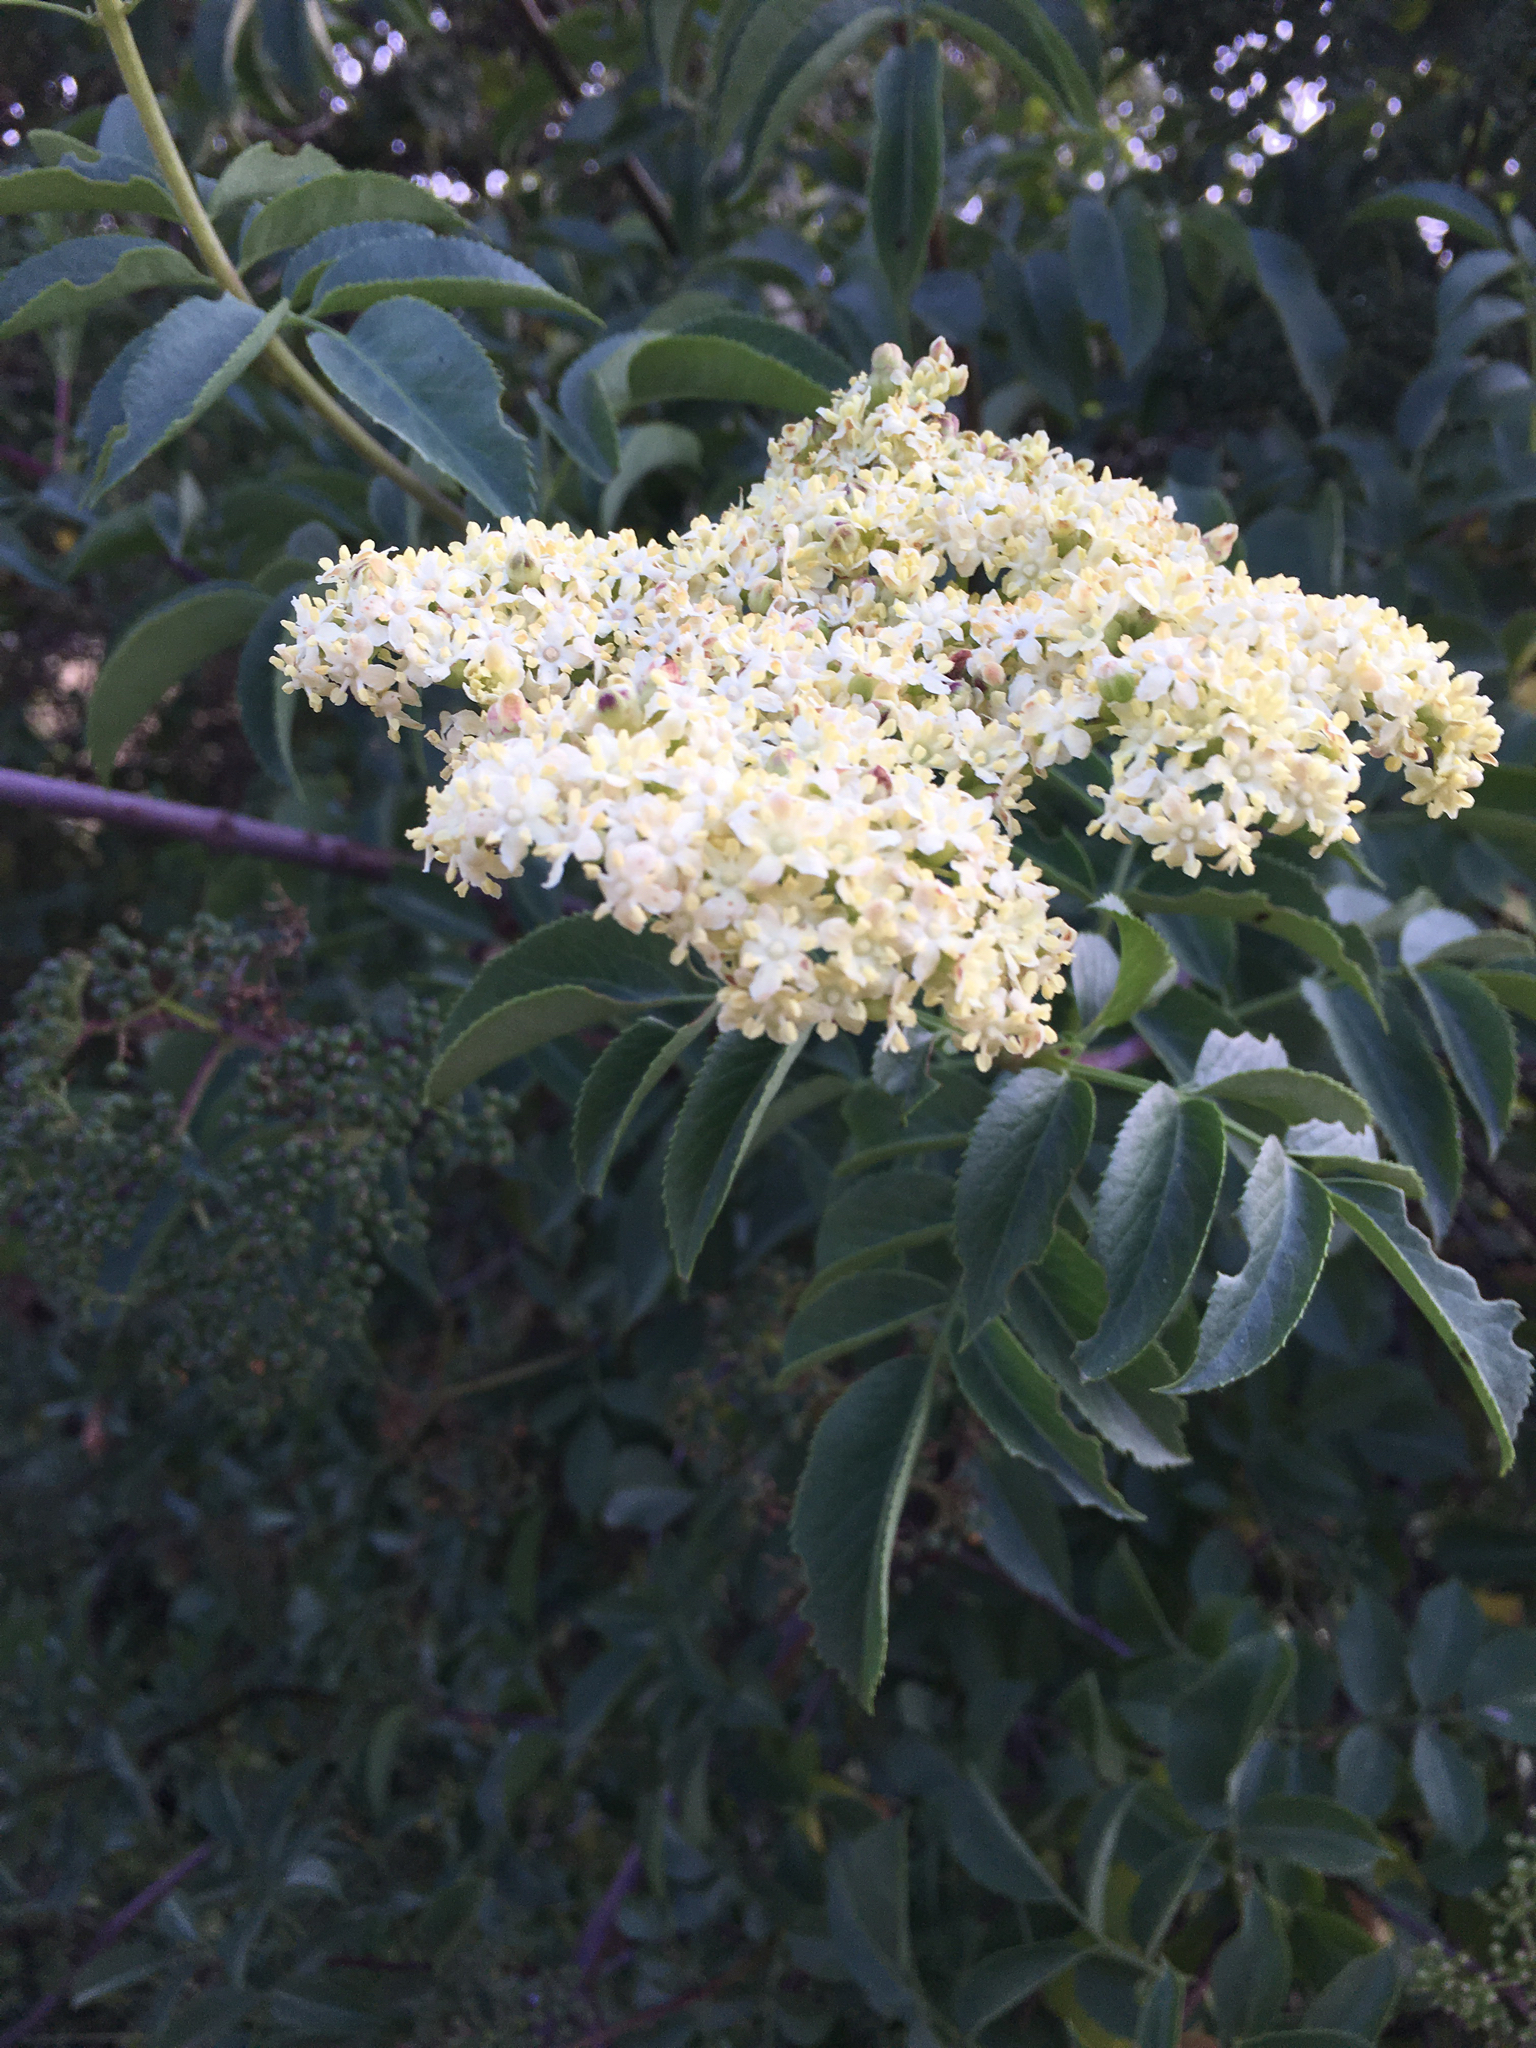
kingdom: Plantae
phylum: Tracheophyta
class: Magnoliopsida
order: Dipsacales
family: Viburnaceae
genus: Sambucus
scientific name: Sambucus cerulea
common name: Blue elder
